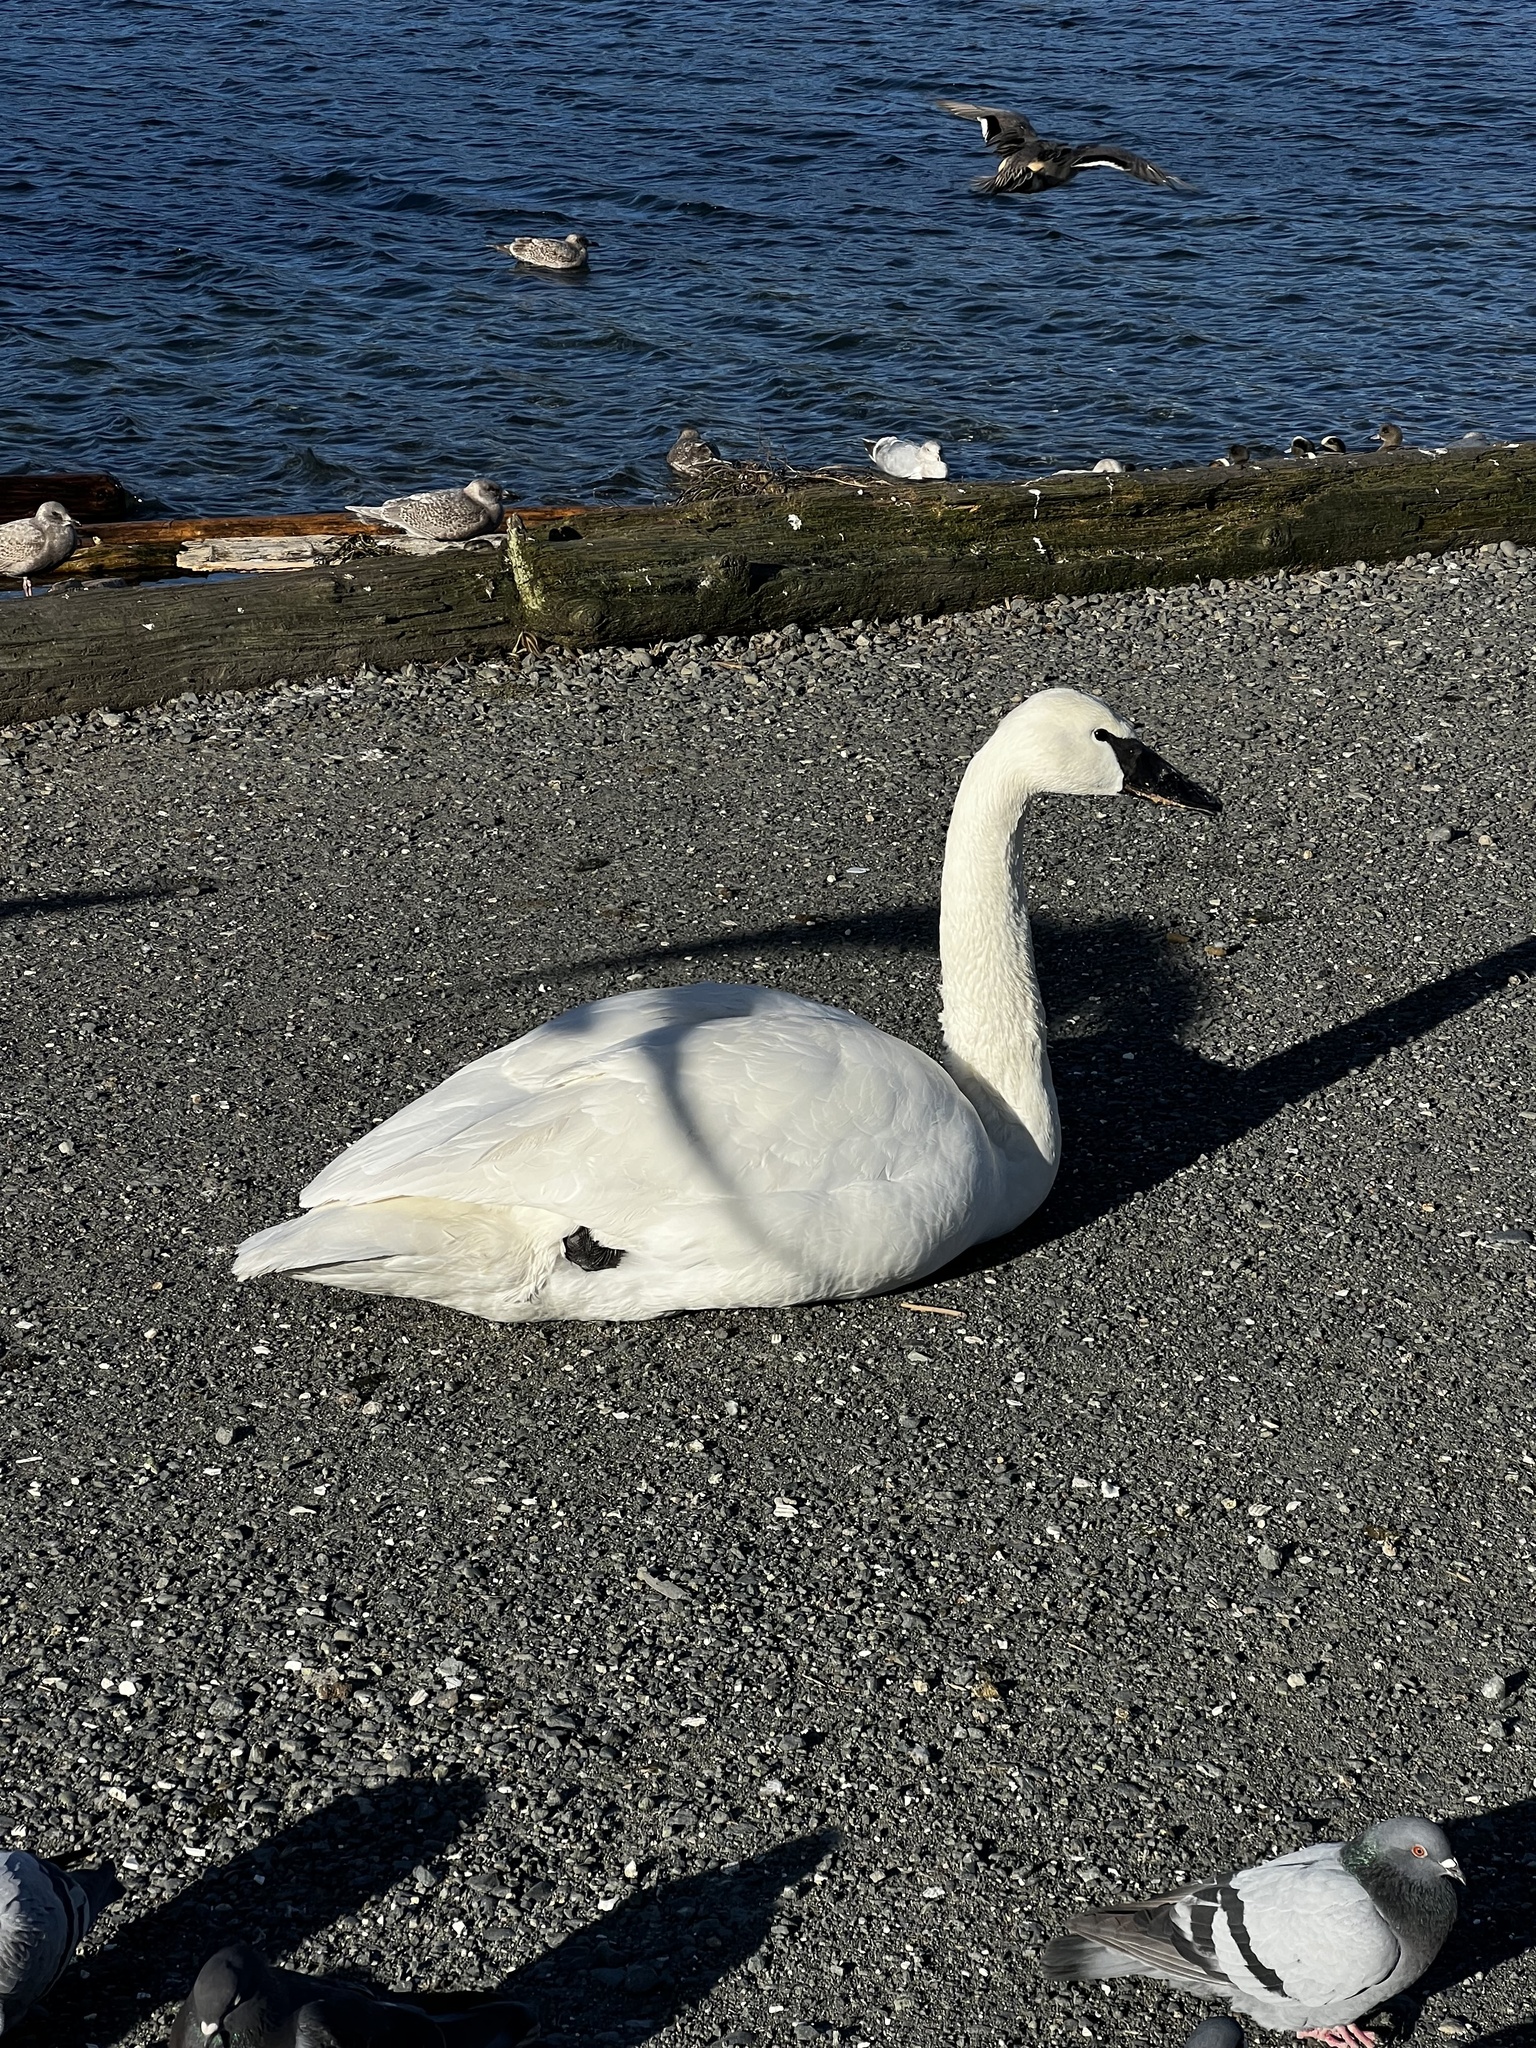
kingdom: Animalia
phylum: Chordata
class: Aves
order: Anseriformes
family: Anatidae
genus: Cygnus
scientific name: Cygnus buccinator
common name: Trumpeter swan
